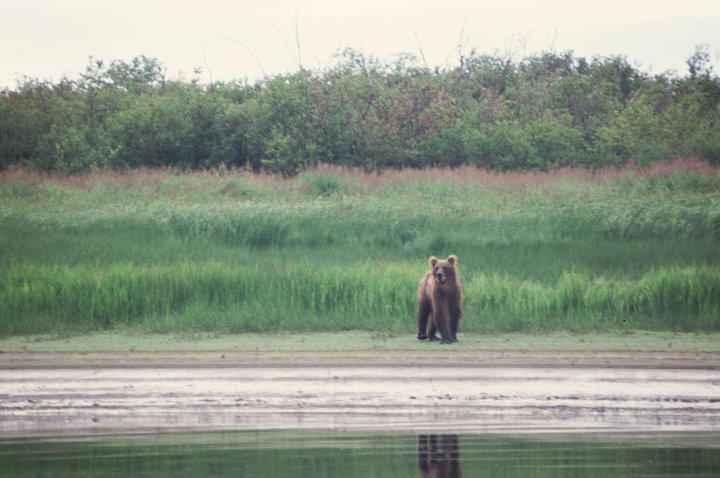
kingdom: Animalia
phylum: Chordata
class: Mammalia
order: Carnivora
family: Ursidae
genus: Ursus
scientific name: Ursus arctos
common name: Brown bear
